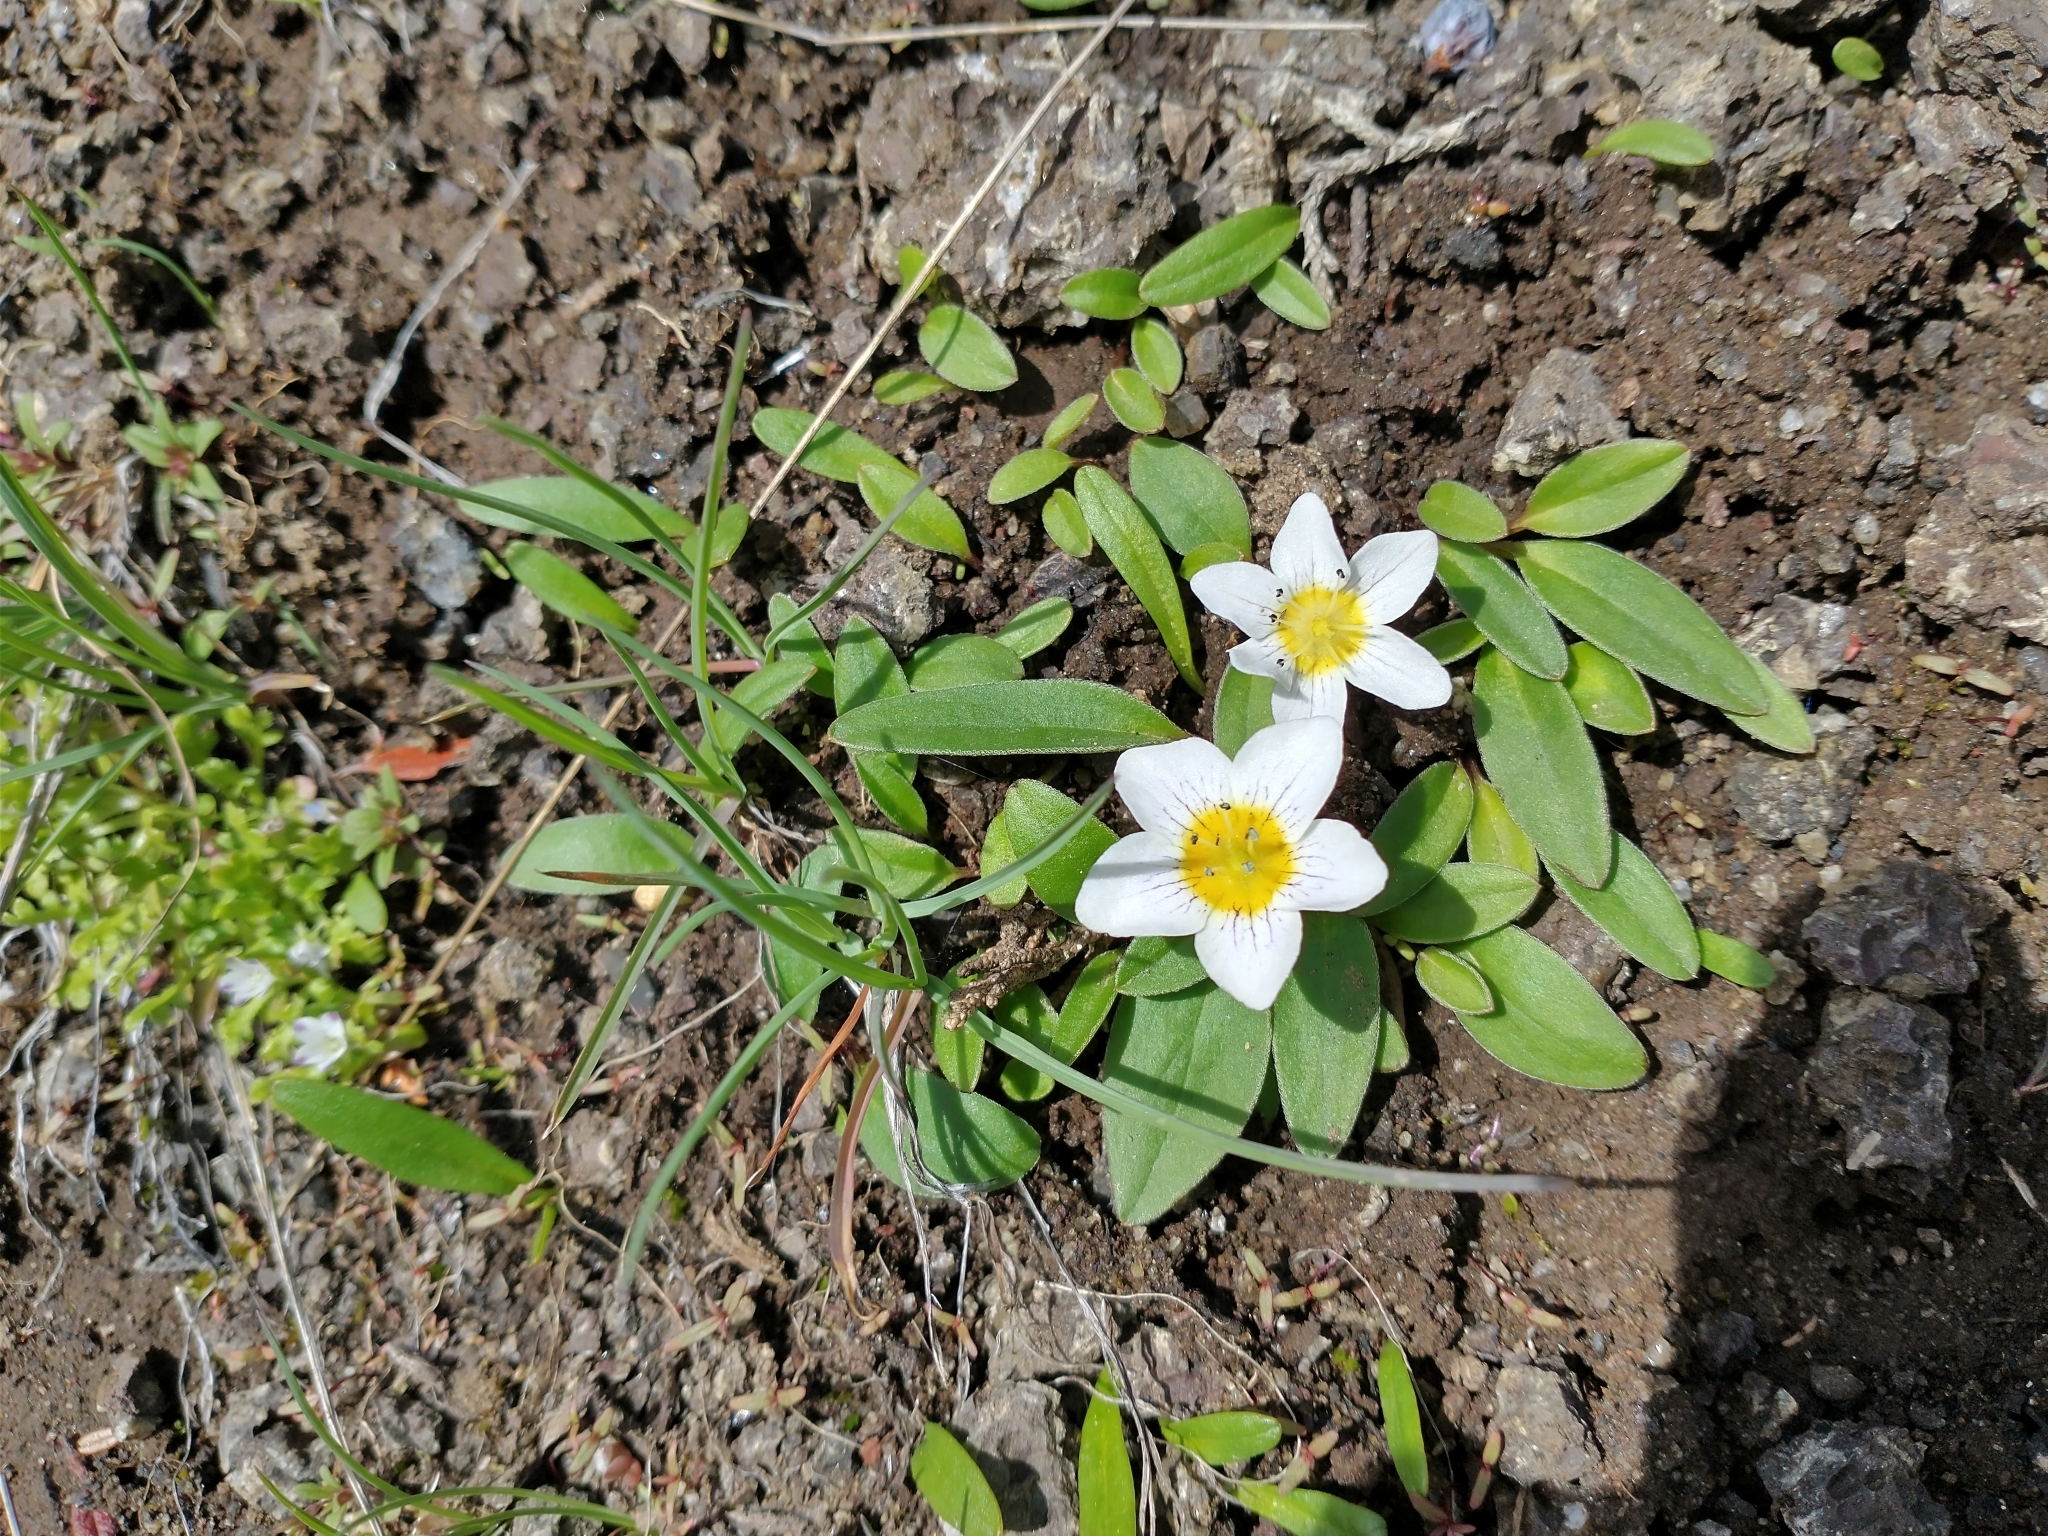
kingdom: Plantae
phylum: Tracheophyta
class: Magnoliopsida
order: Boraginales
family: Hydrophyllaceae
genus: Hesperochiron
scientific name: Hesperochiron pumilus
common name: Dwarf hesperochiron
